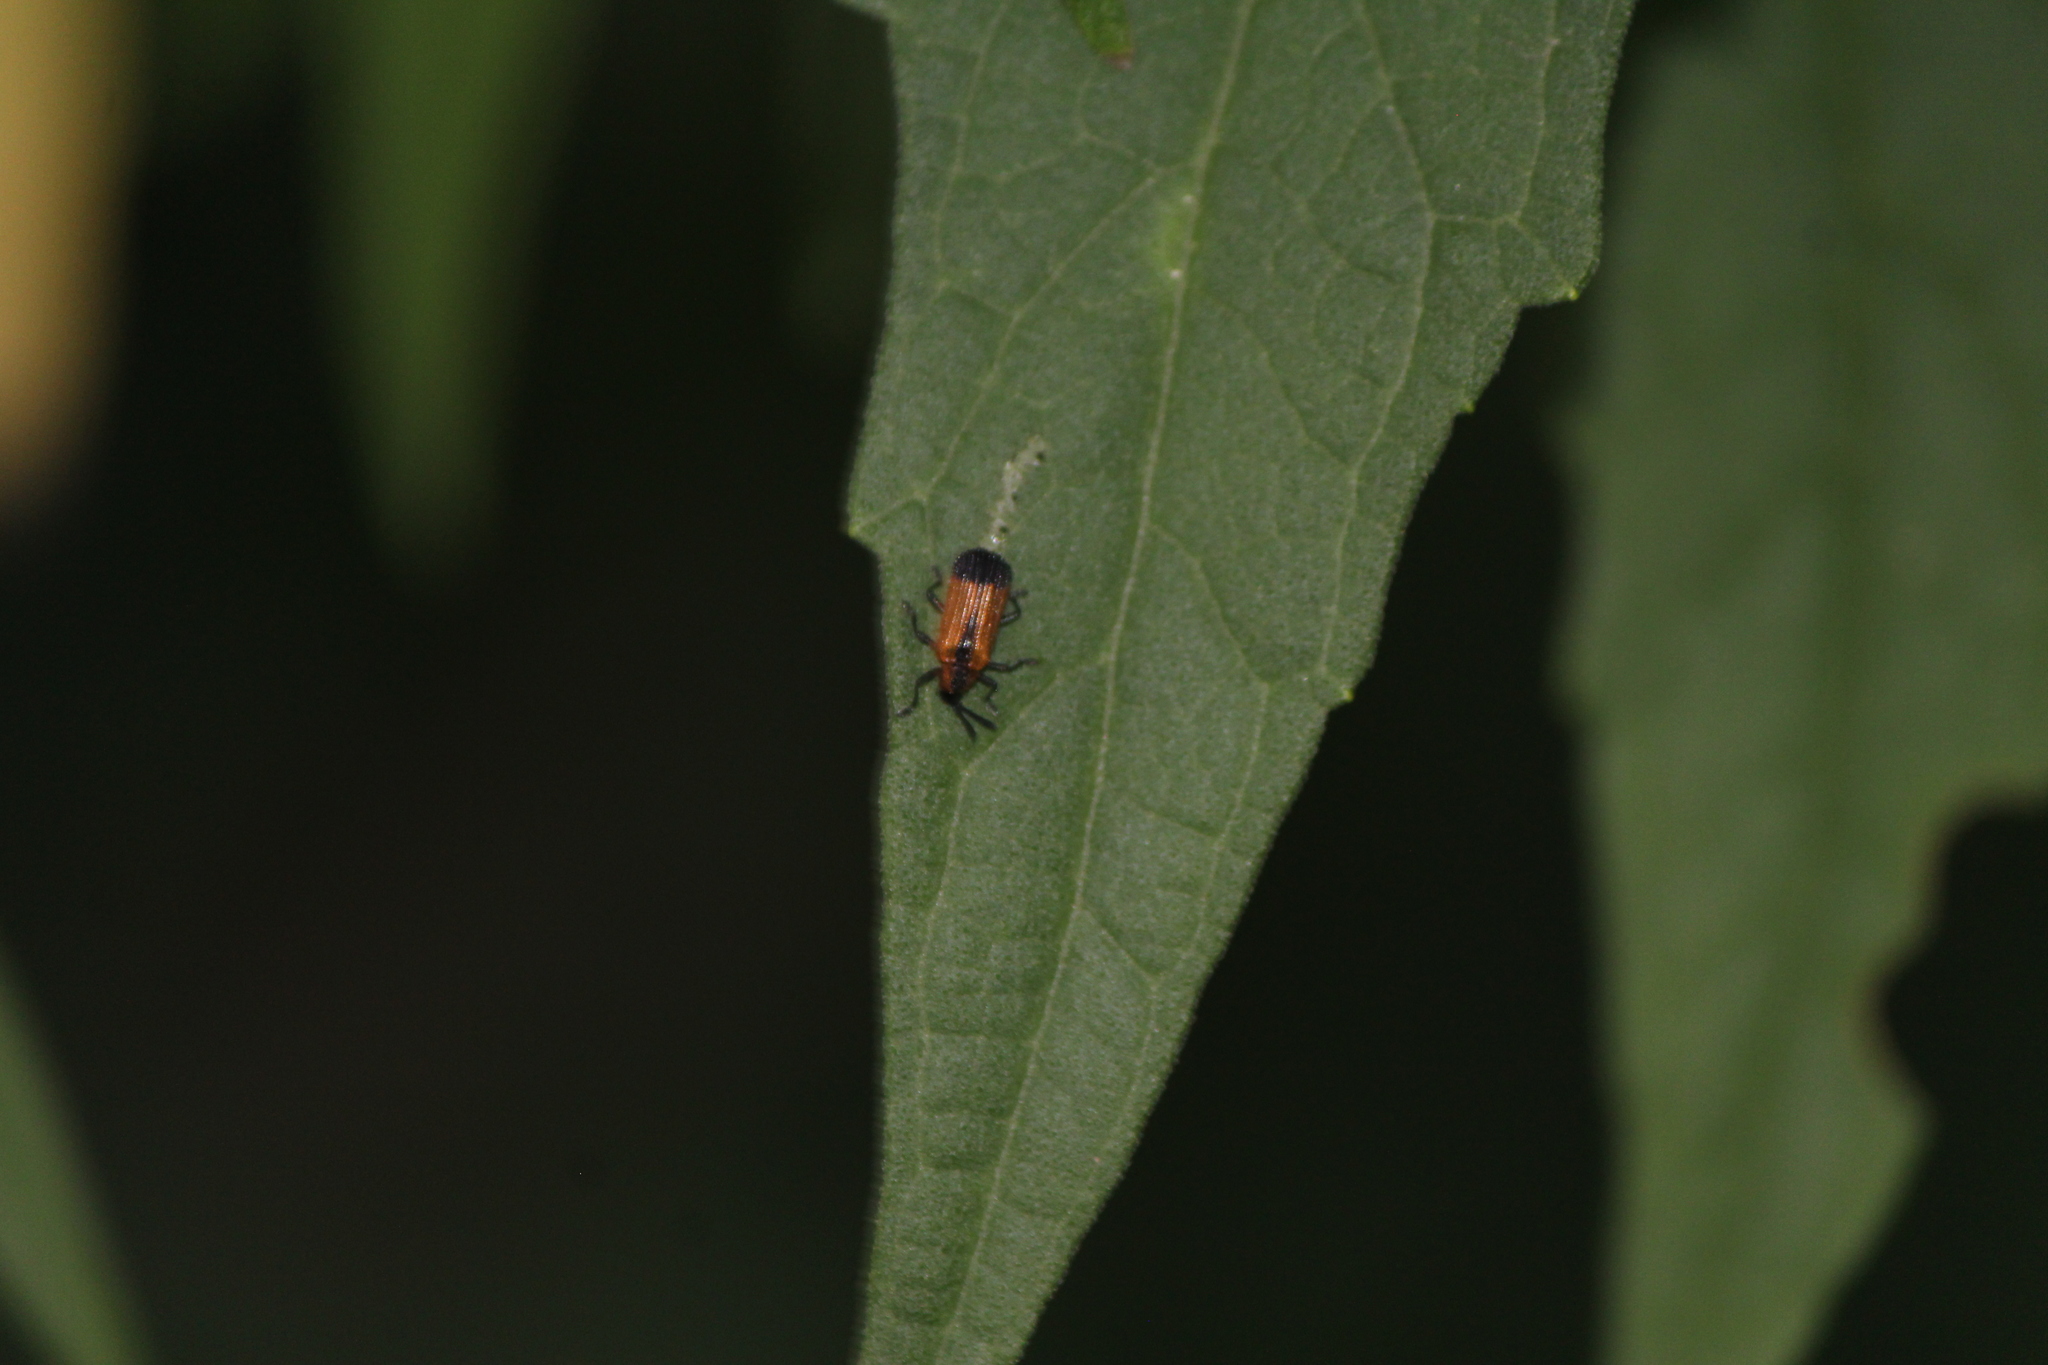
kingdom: Animalia
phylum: Arthropoda
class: Insecta
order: Coleoptera
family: Chrysomelidae
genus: Pentispa
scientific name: Pentispa melanura
